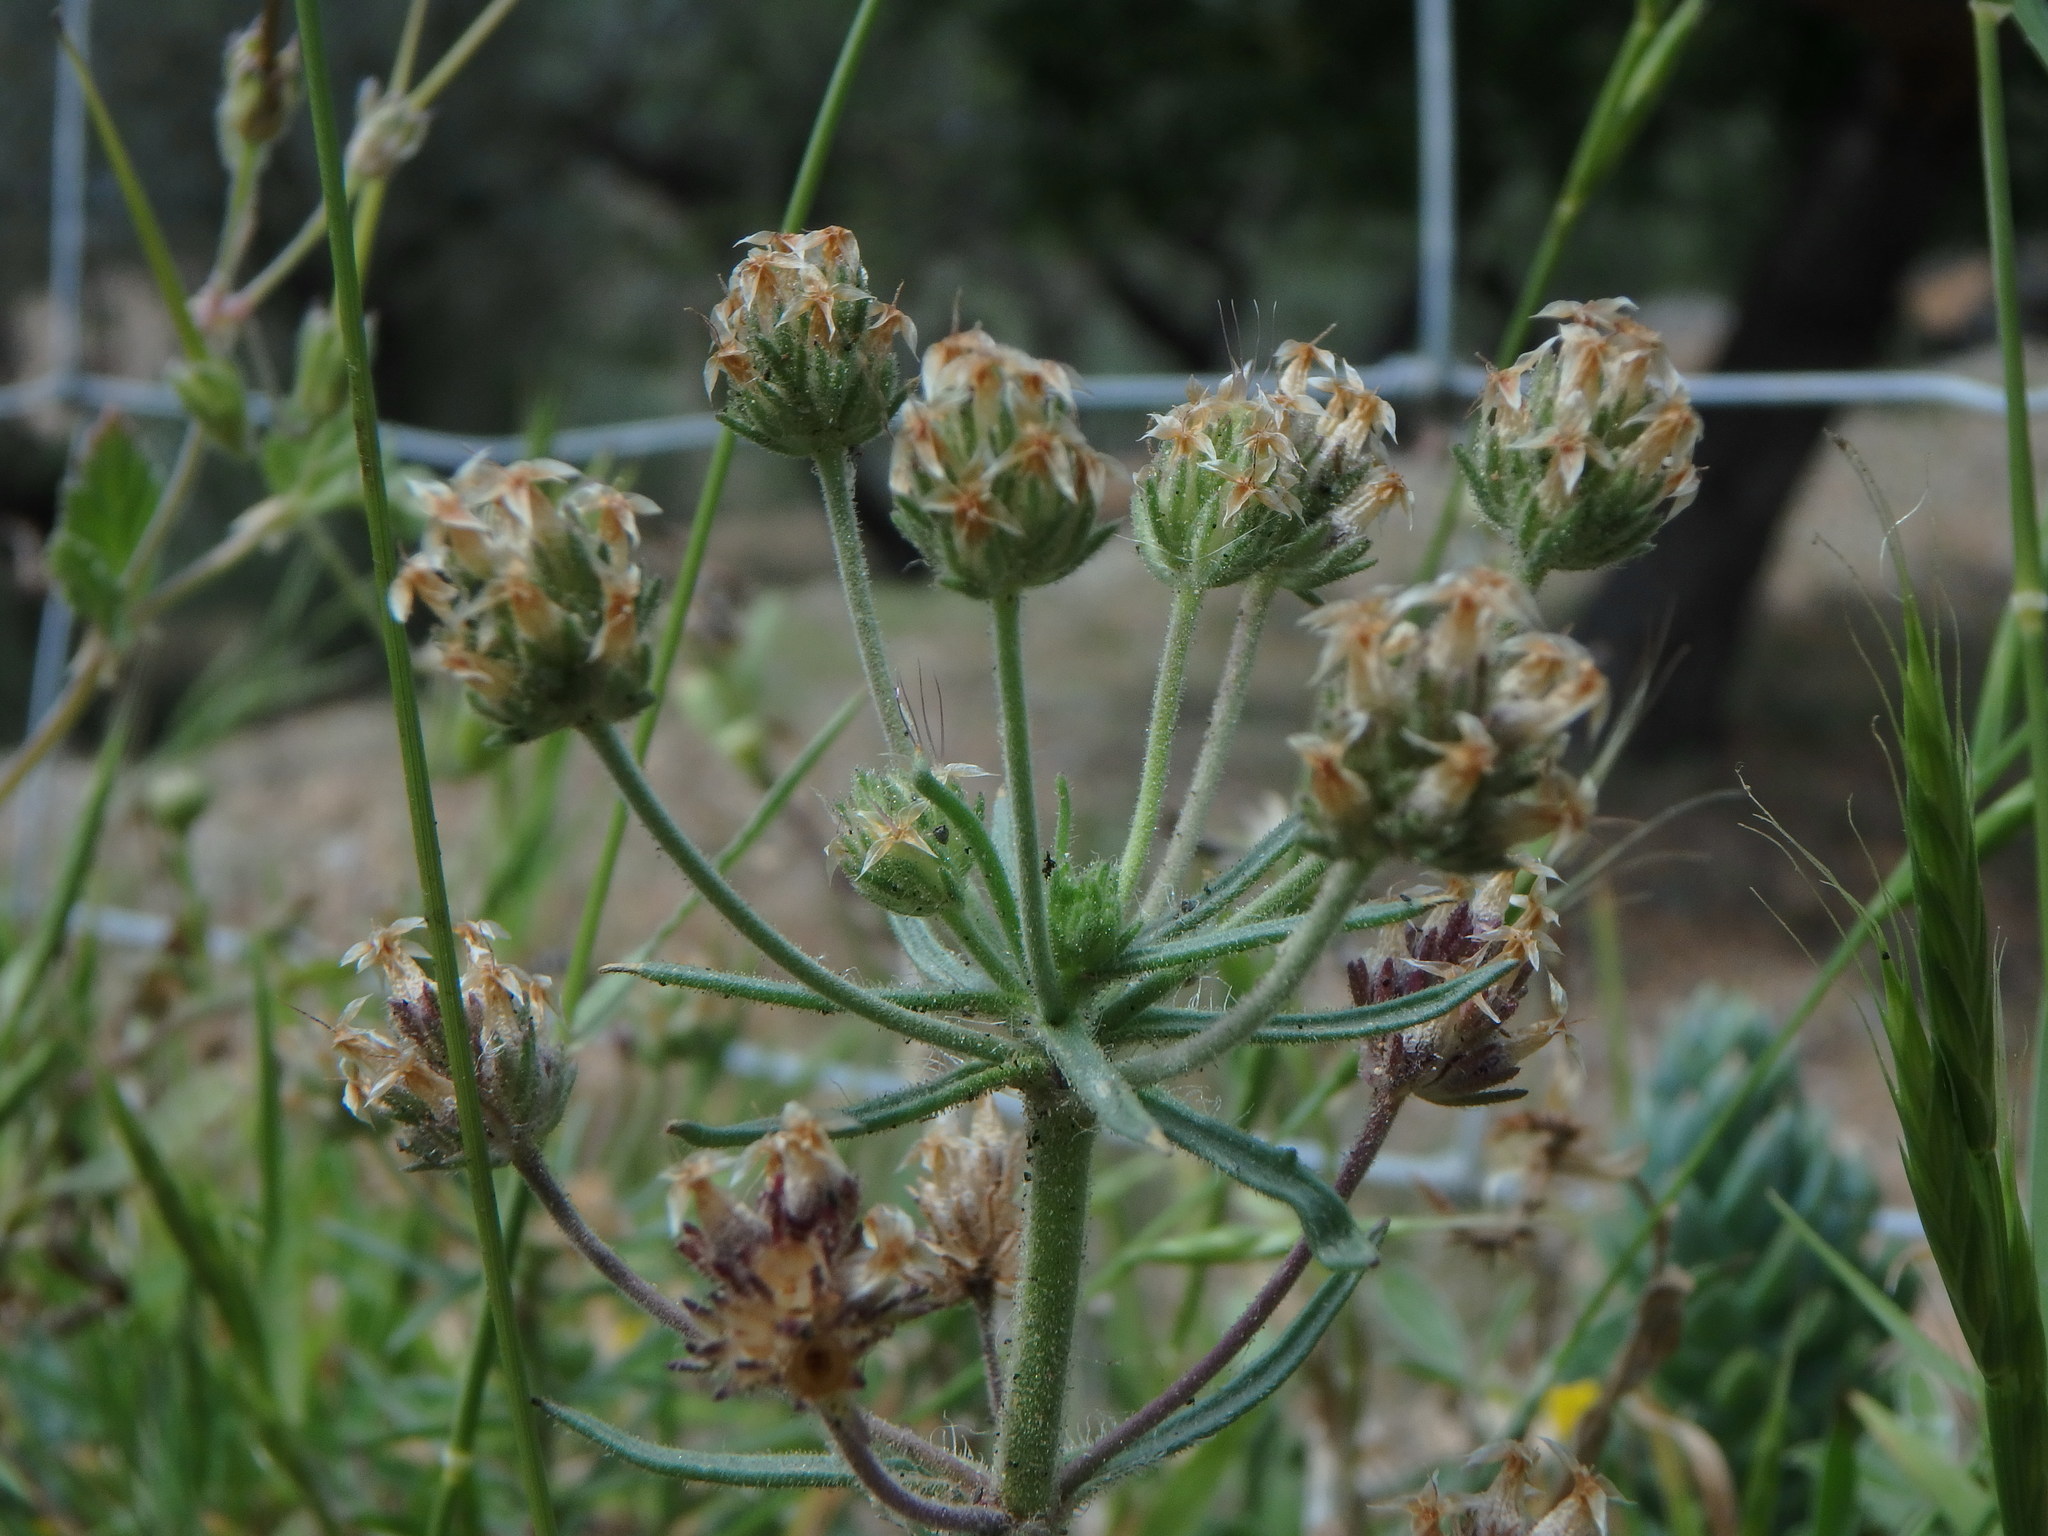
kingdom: Plantae
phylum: Tracheophyta
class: Magnoliopsida
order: Lamiales
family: Plantaginaceae
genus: Plantago
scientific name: Plantago afra
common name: Glandular plantain
